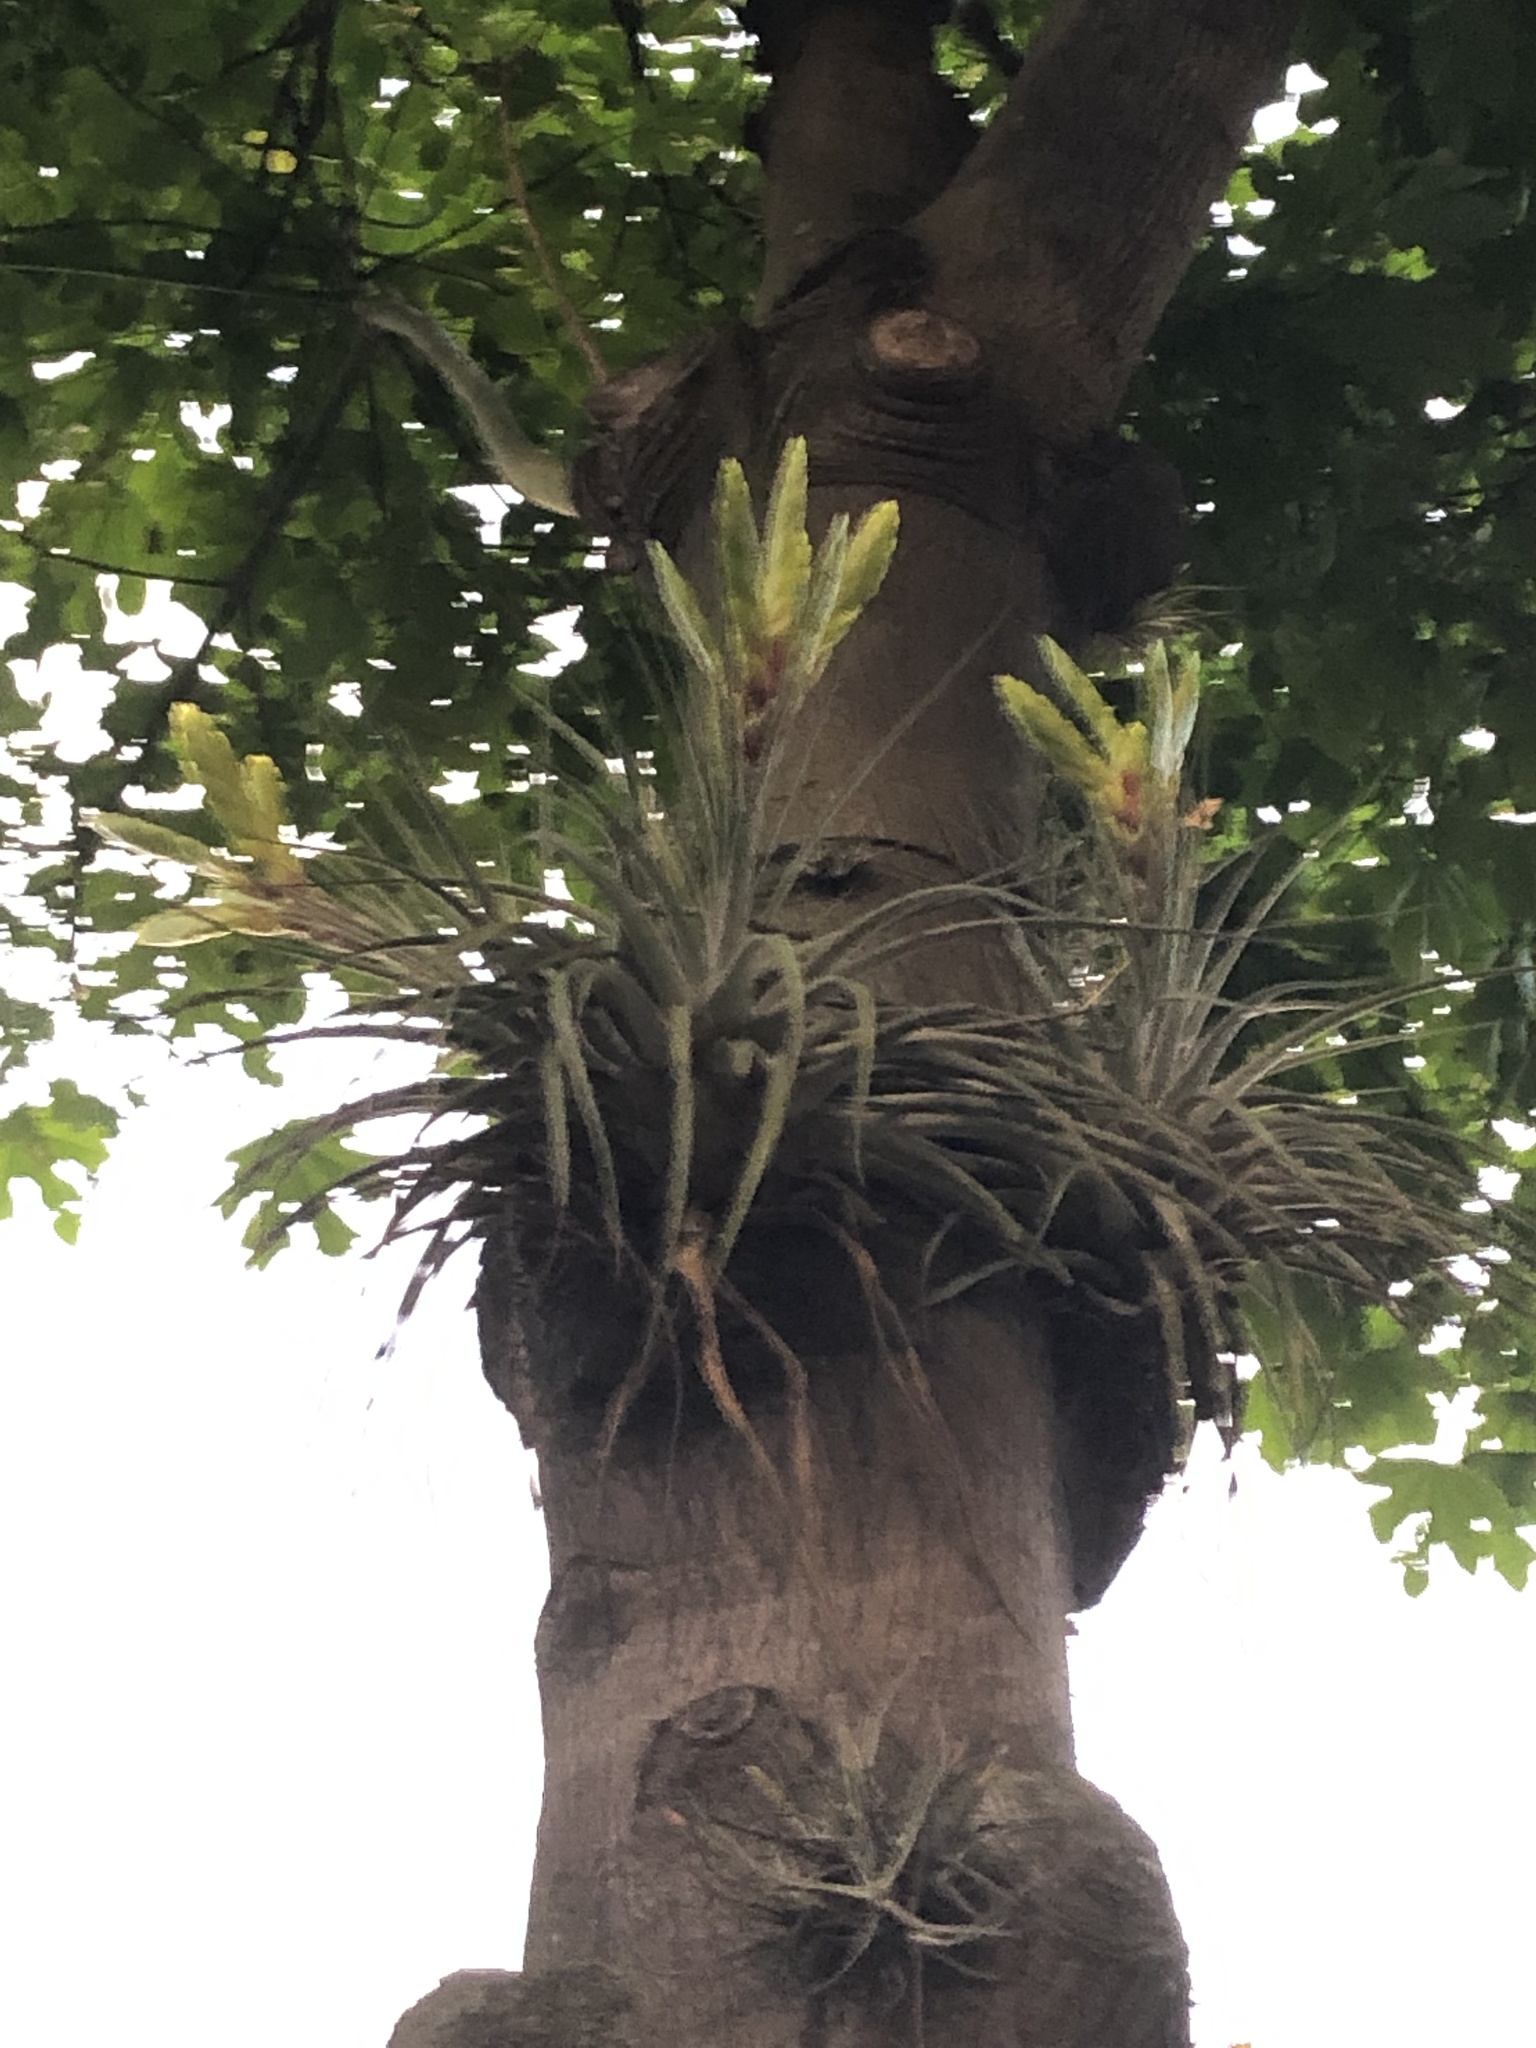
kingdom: Plantae
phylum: Tracheophyta
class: Liliopsida
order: Poales
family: Bromeliaceae
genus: Tillandsia
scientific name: Tillandsia fasciculata
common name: Giant airplant
